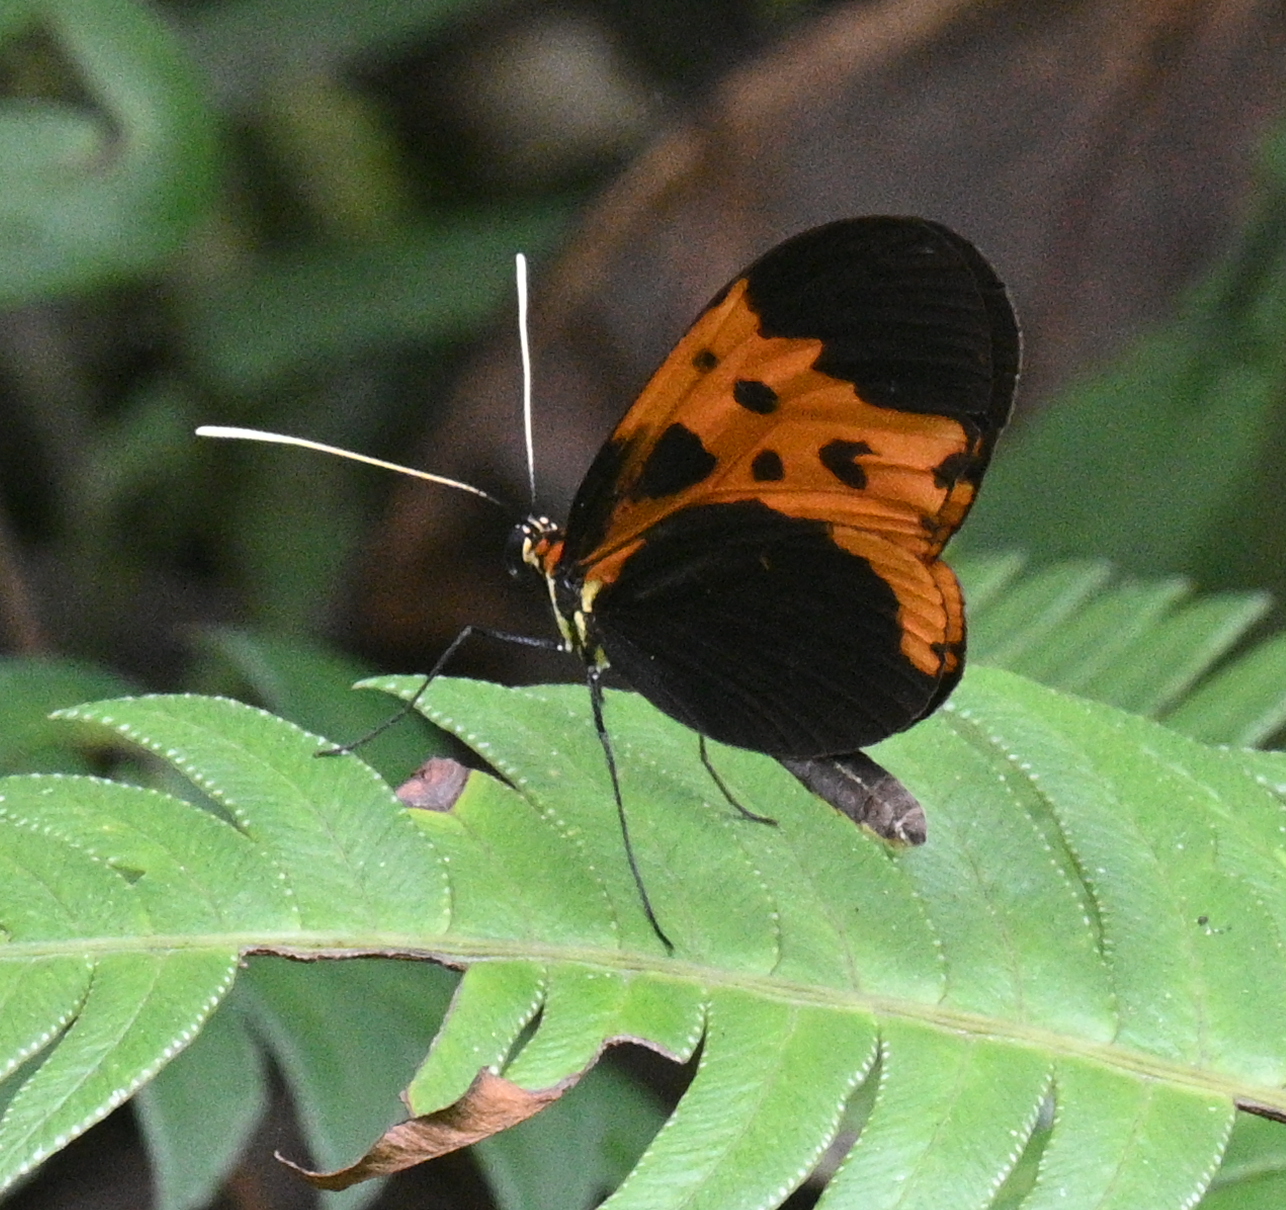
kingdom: Animalia
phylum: Arthropoda
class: Insecta
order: Lepidoptera
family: Nymphalidae
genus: Melinaea
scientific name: Melinaea marsaeus
